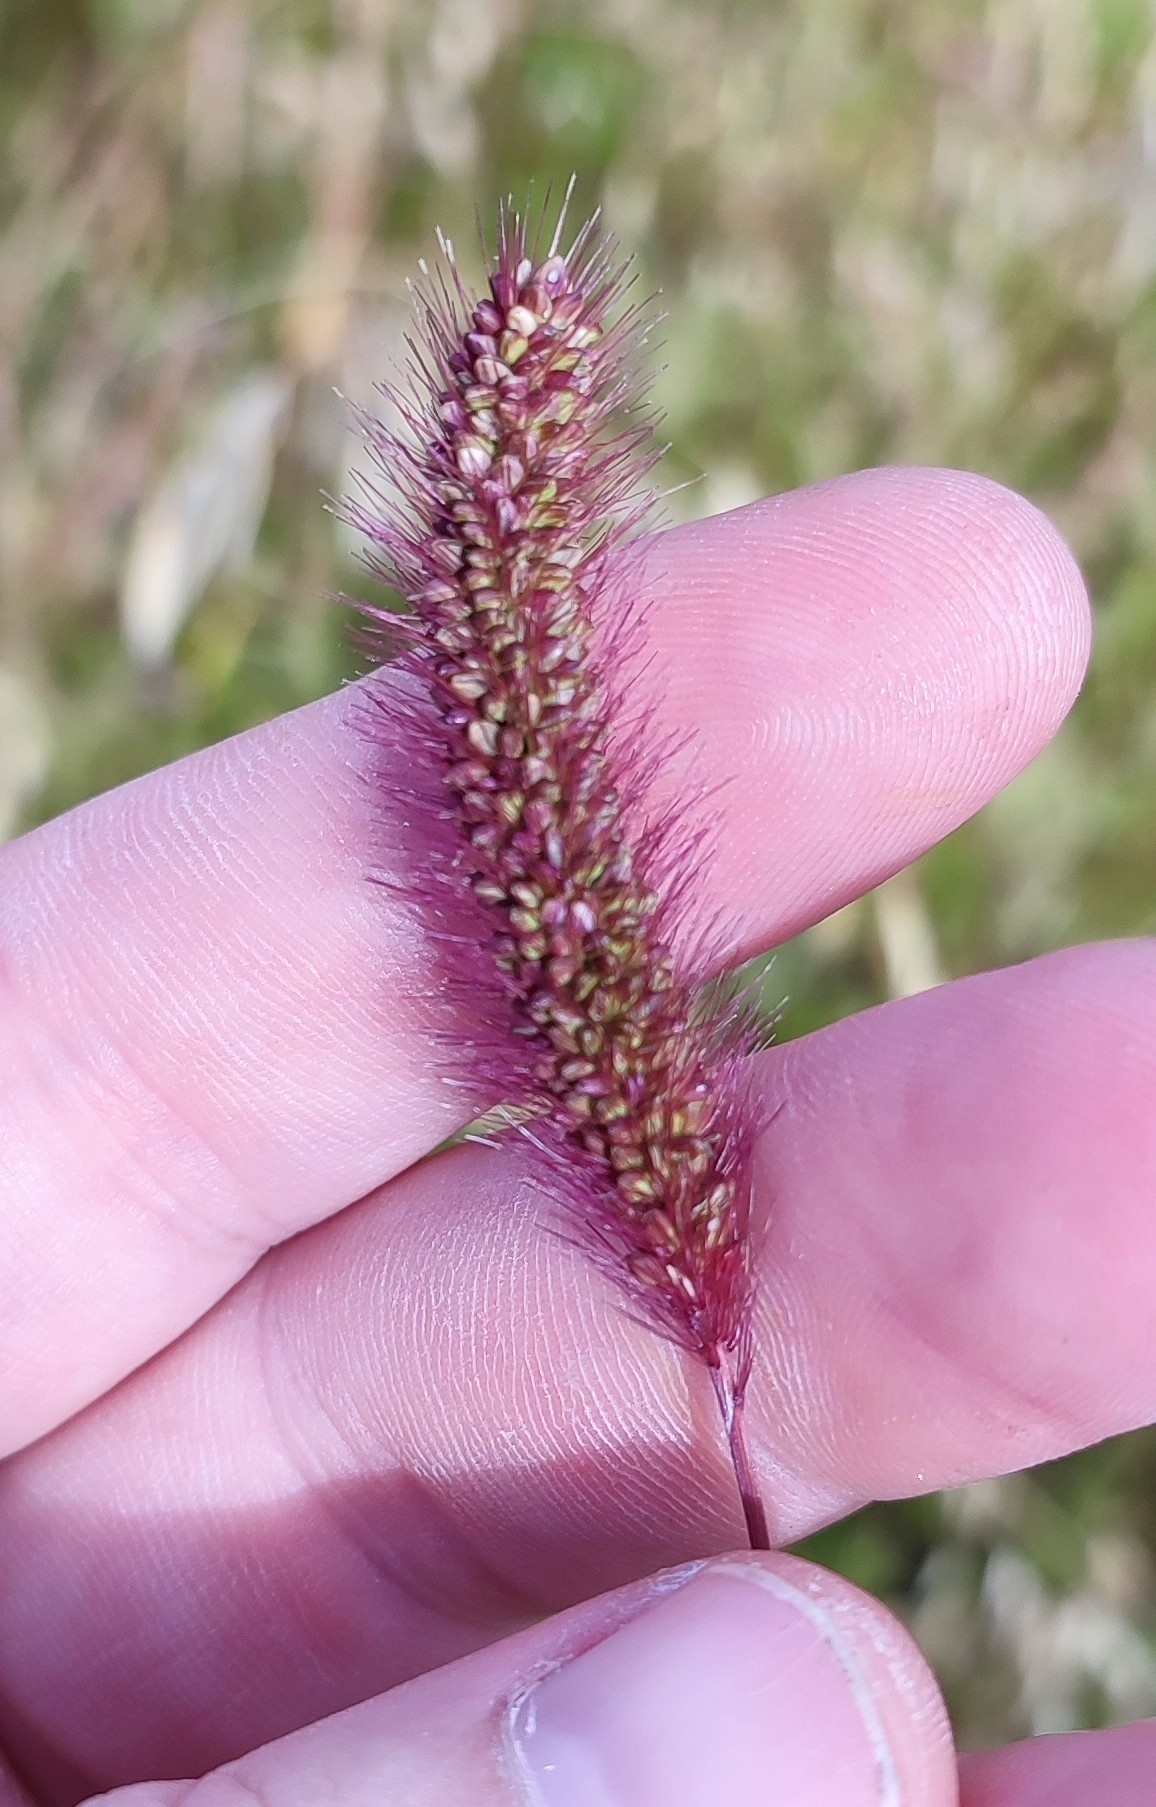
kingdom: Plantae
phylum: Tracheophyta
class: Liliopsida
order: Poales
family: Poaceae
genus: Setaria
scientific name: Setaria viridis
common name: Green bristlegrass
